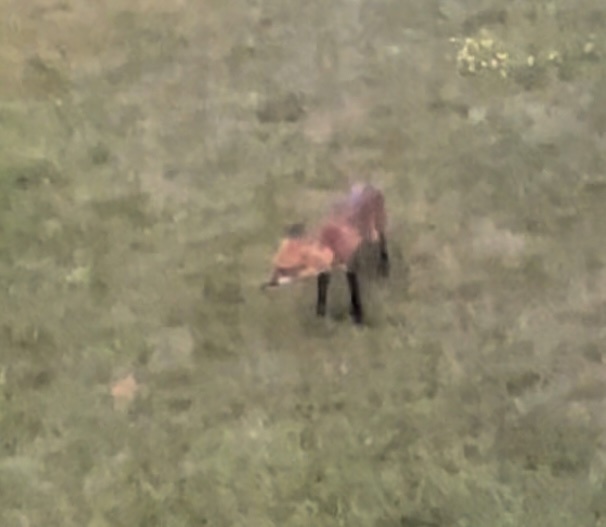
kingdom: Animalia
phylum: Chordata
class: Mammalia
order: Carnivora
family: Canidae
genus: Vulpes
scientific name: Vulpes vulpes
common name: Red fox
